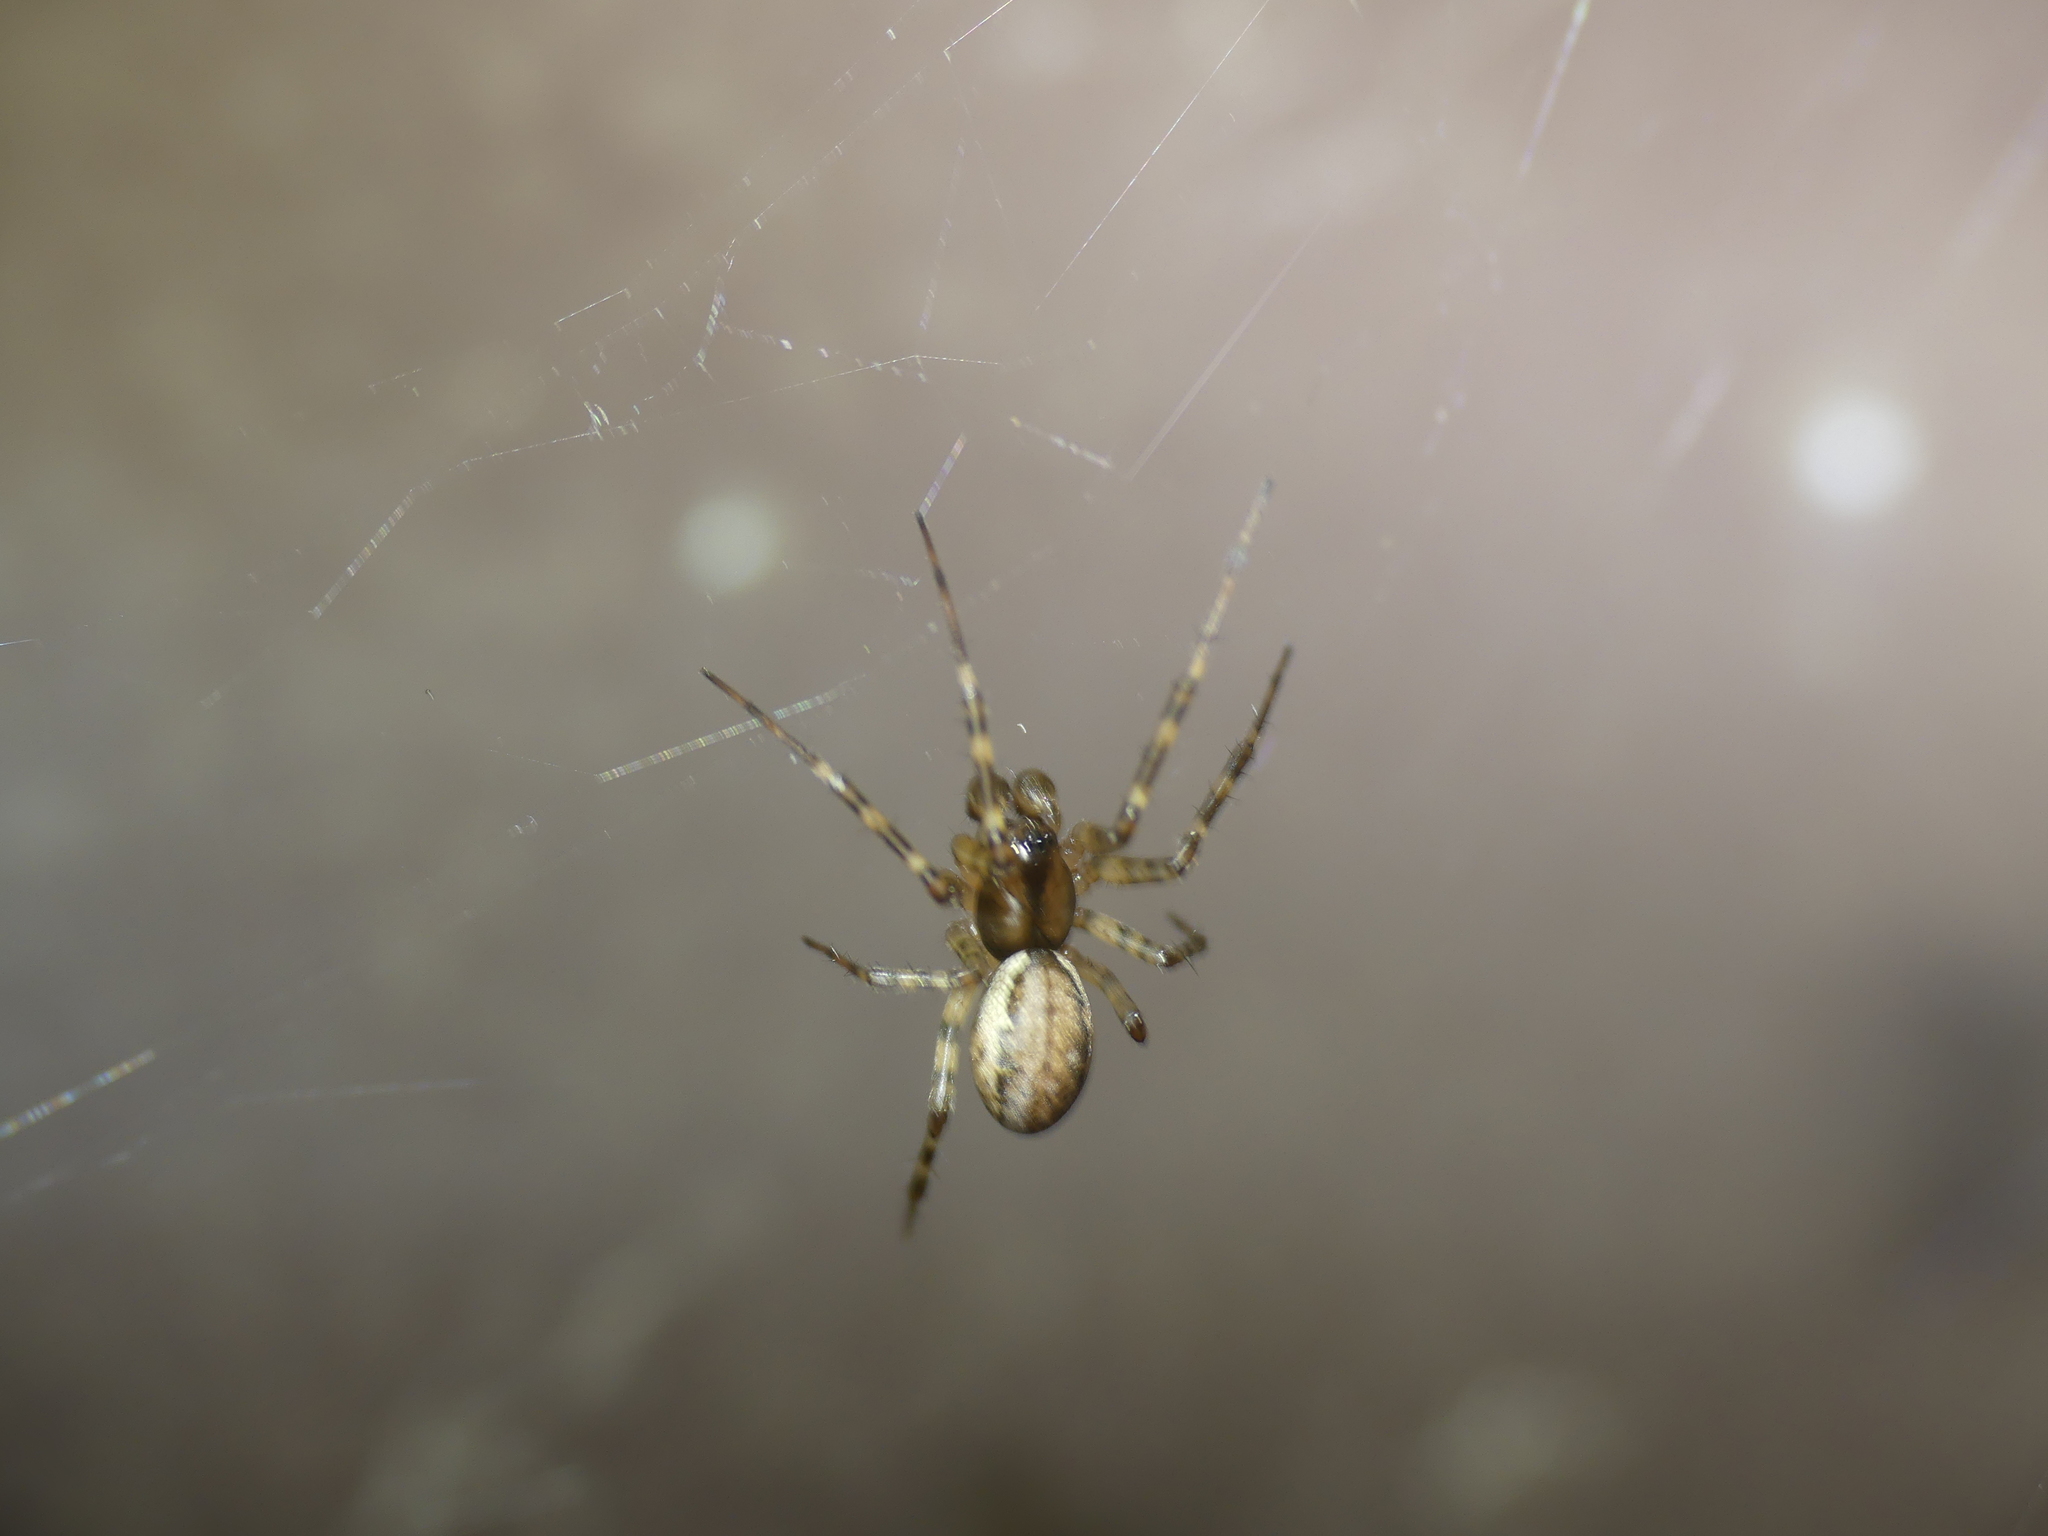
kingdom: Animalia
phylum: Arthropoda
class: Arachnida
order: Araneae
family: Araneidae
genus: Zygiella
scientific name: Zygiella x-notata
